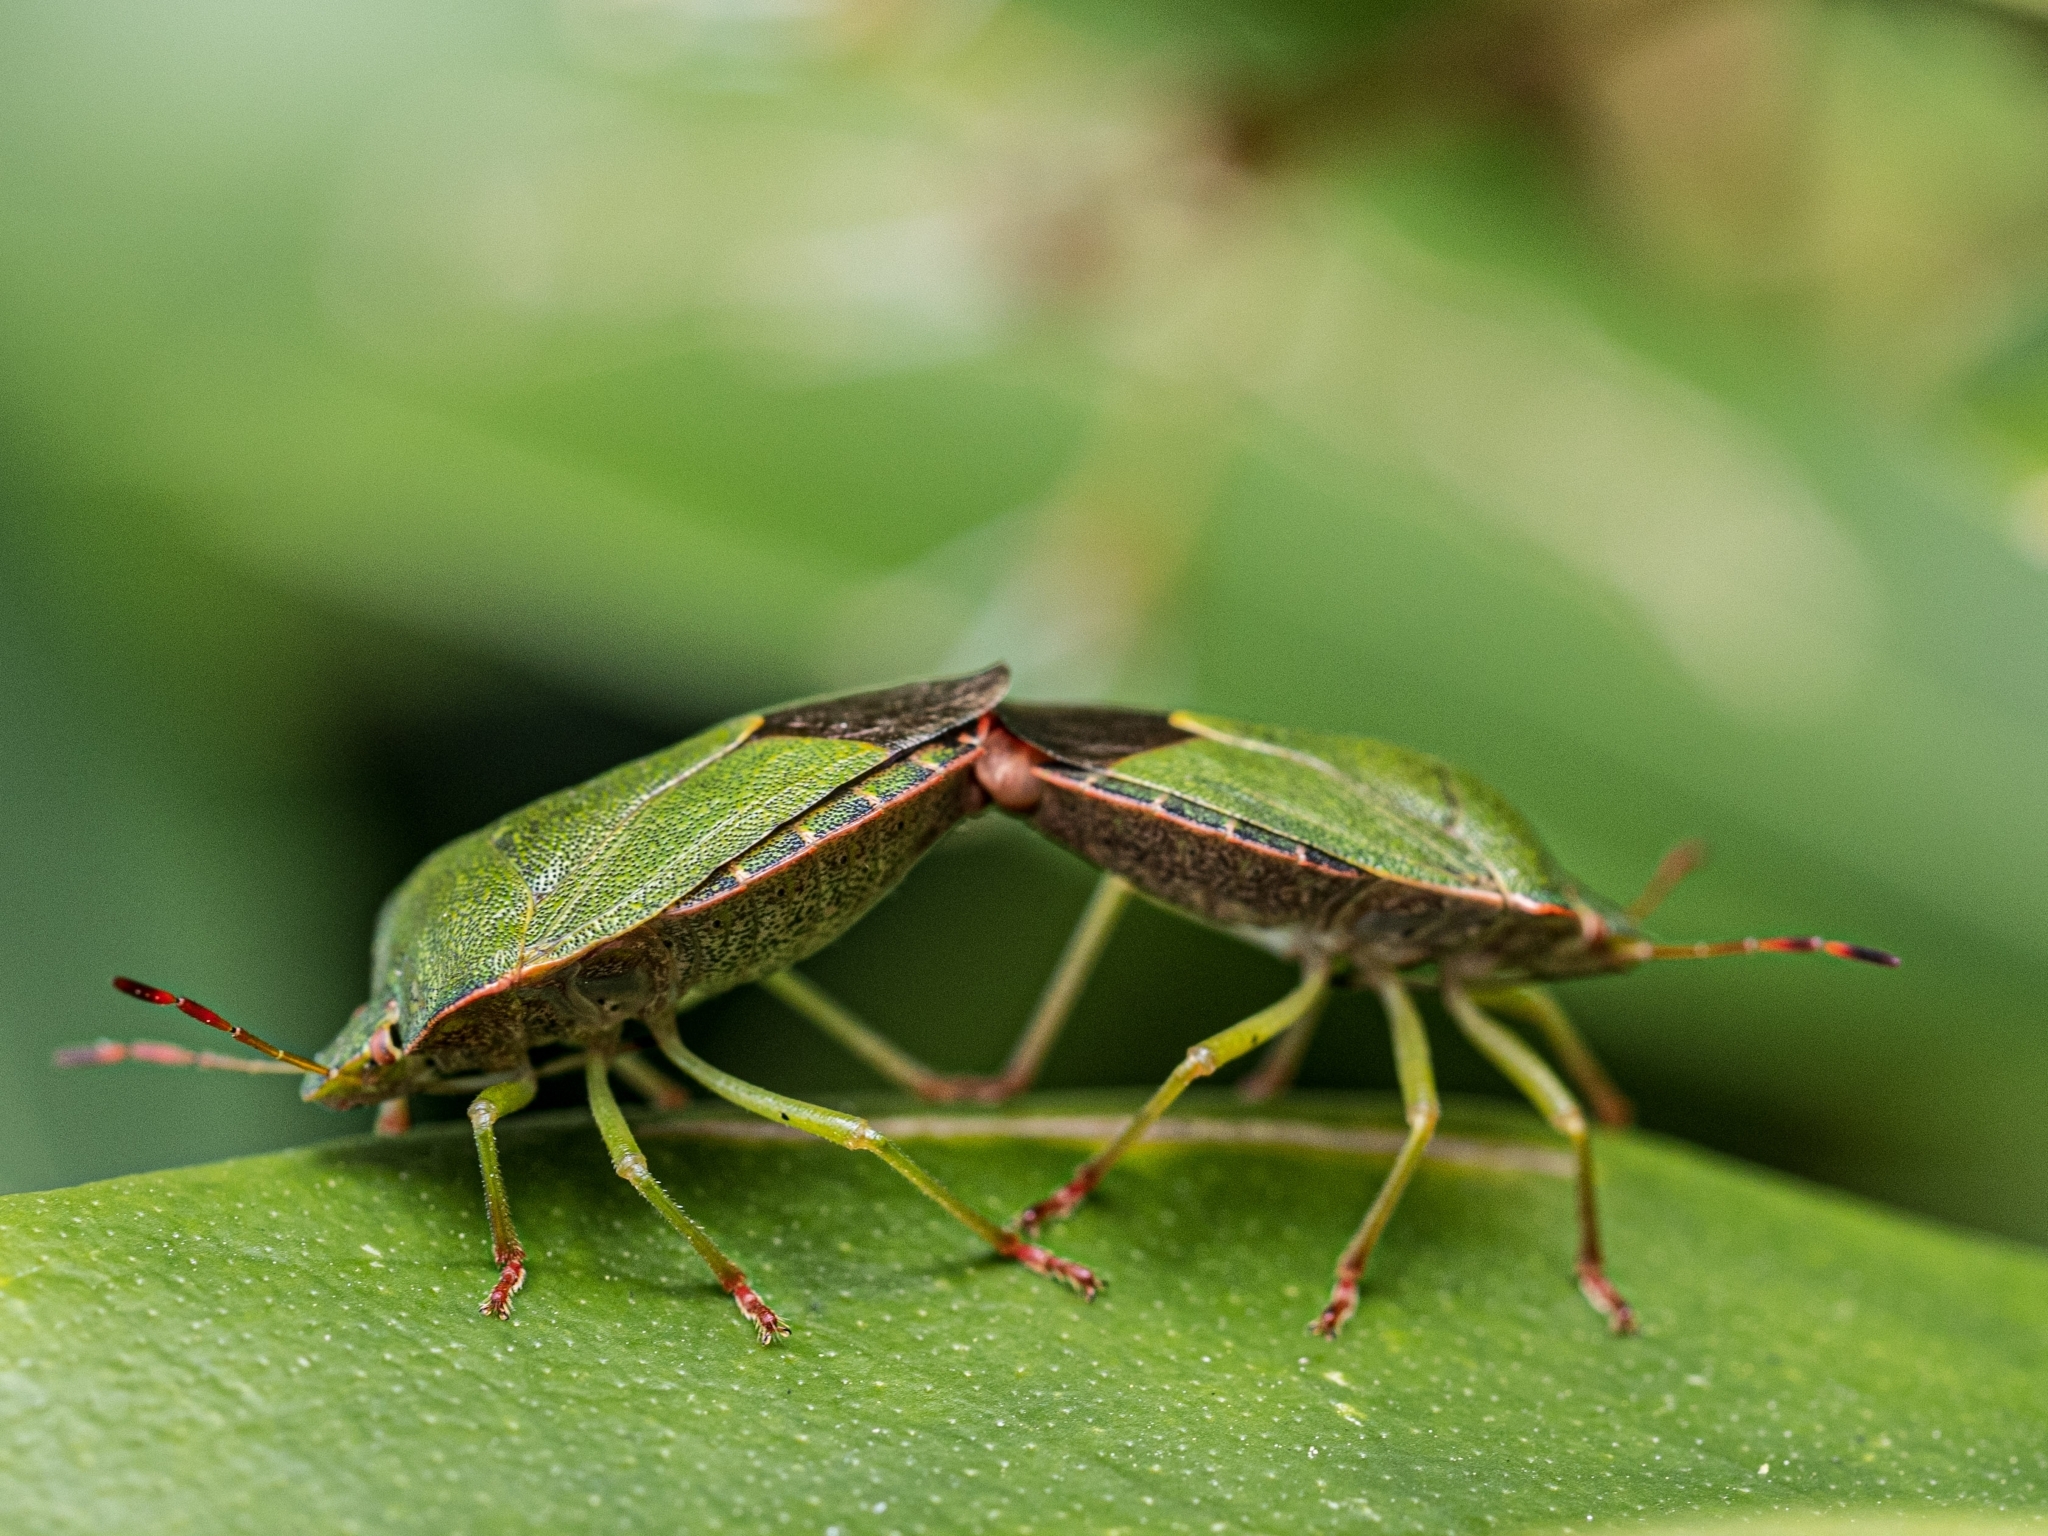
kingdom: Animalia
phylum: Arthropoda
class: Insecta
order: Hemiptera
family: Pentatomidae
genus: Palomena
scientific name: Palomena prasina
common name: Green shieldbug
